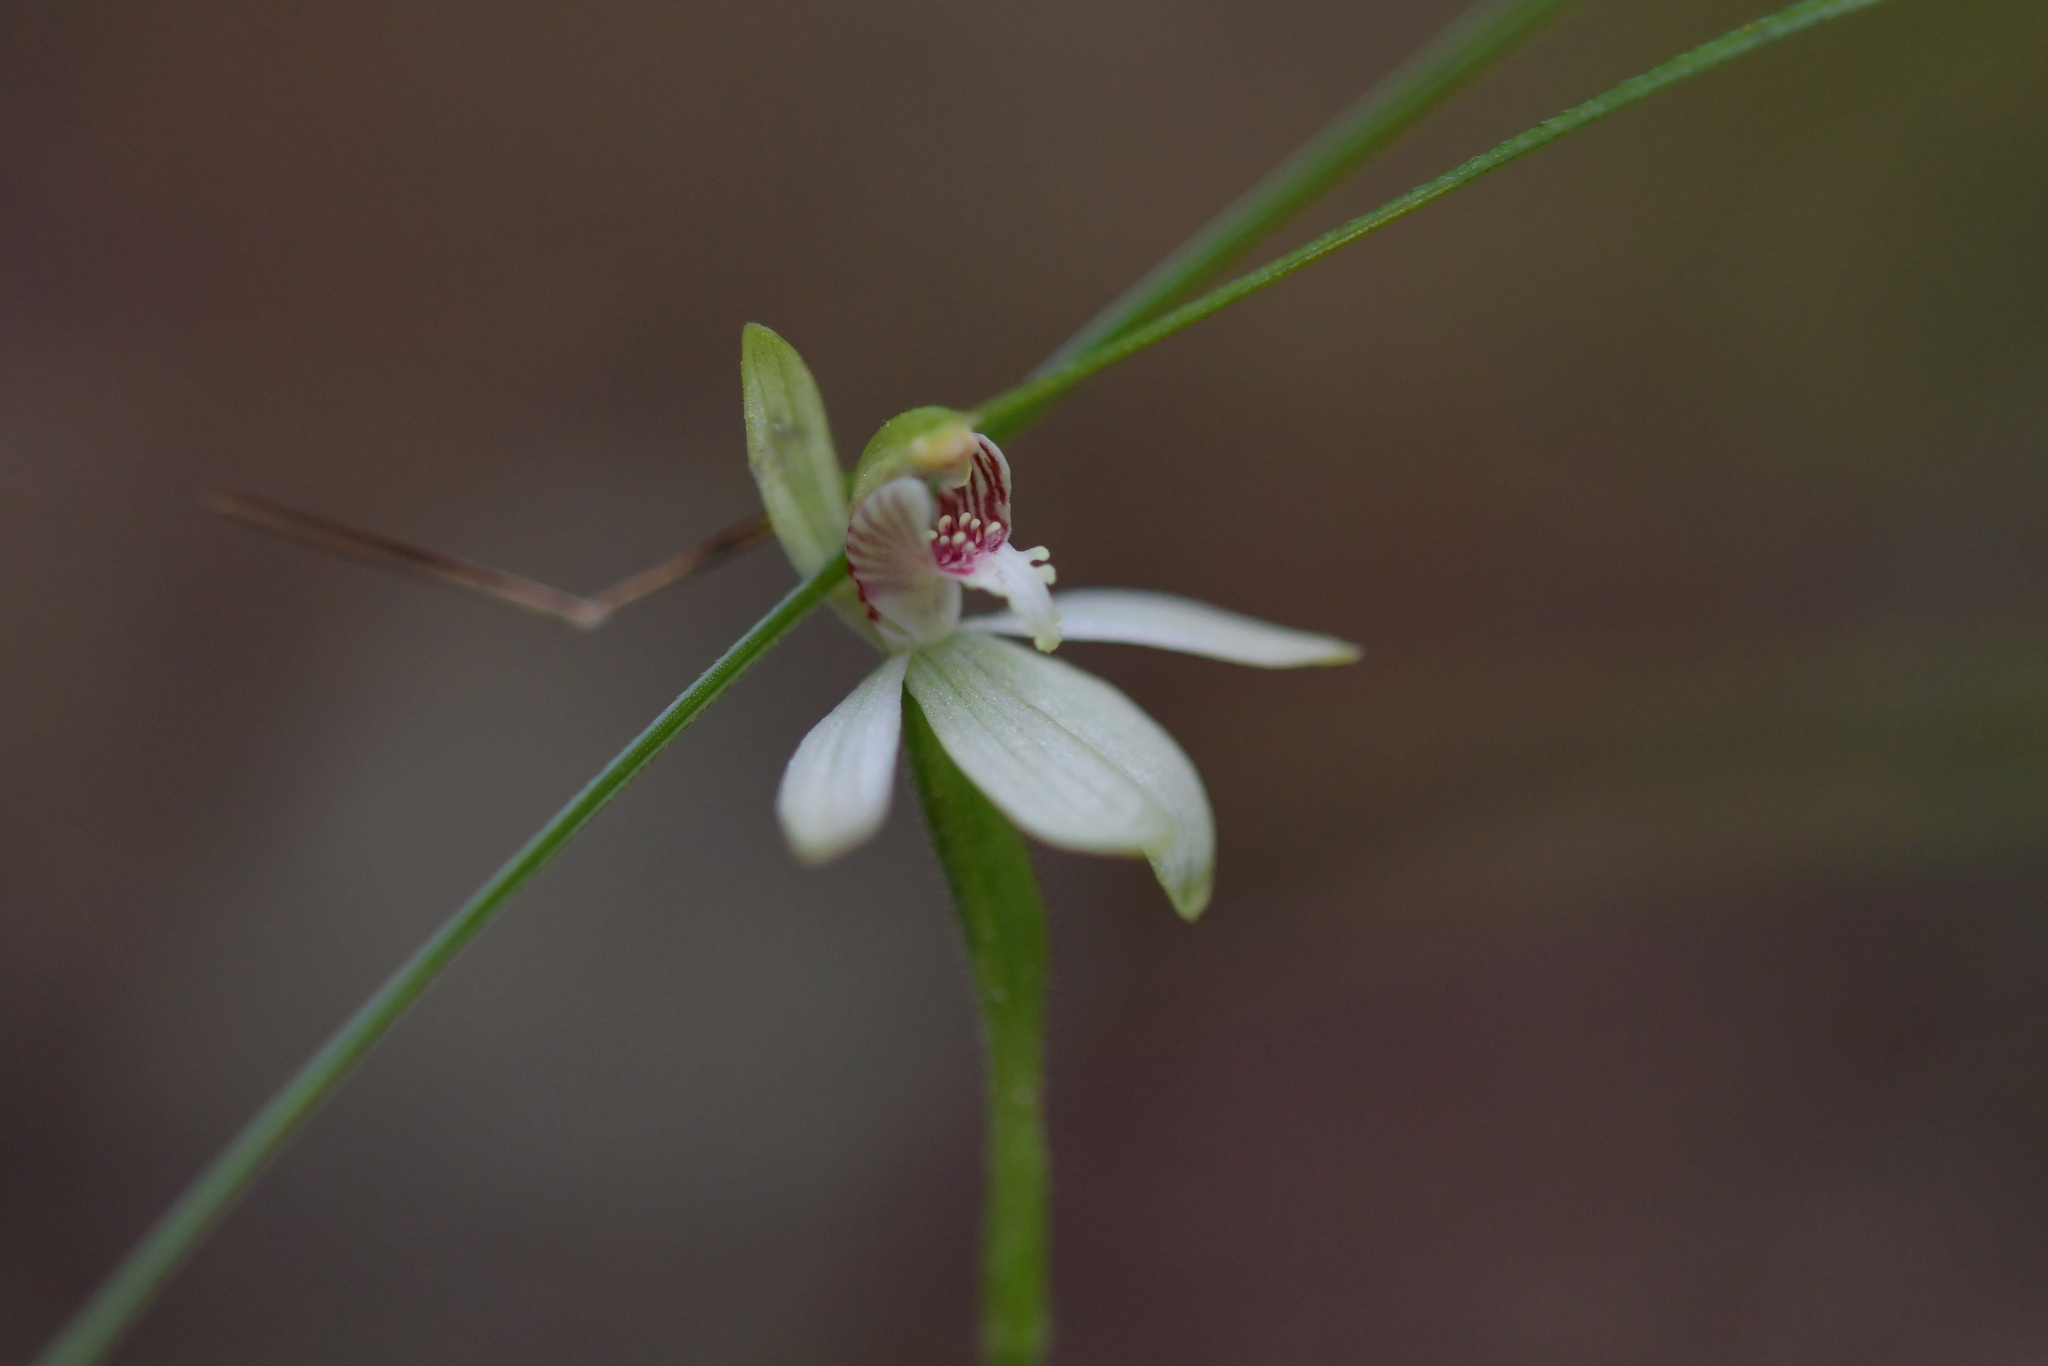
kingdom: Plantae
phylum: Tracheophyta
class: Liliopsida
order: Asparagales
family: Orchidaceae
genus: Caladenia
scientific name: Caladenia chlorostyla
